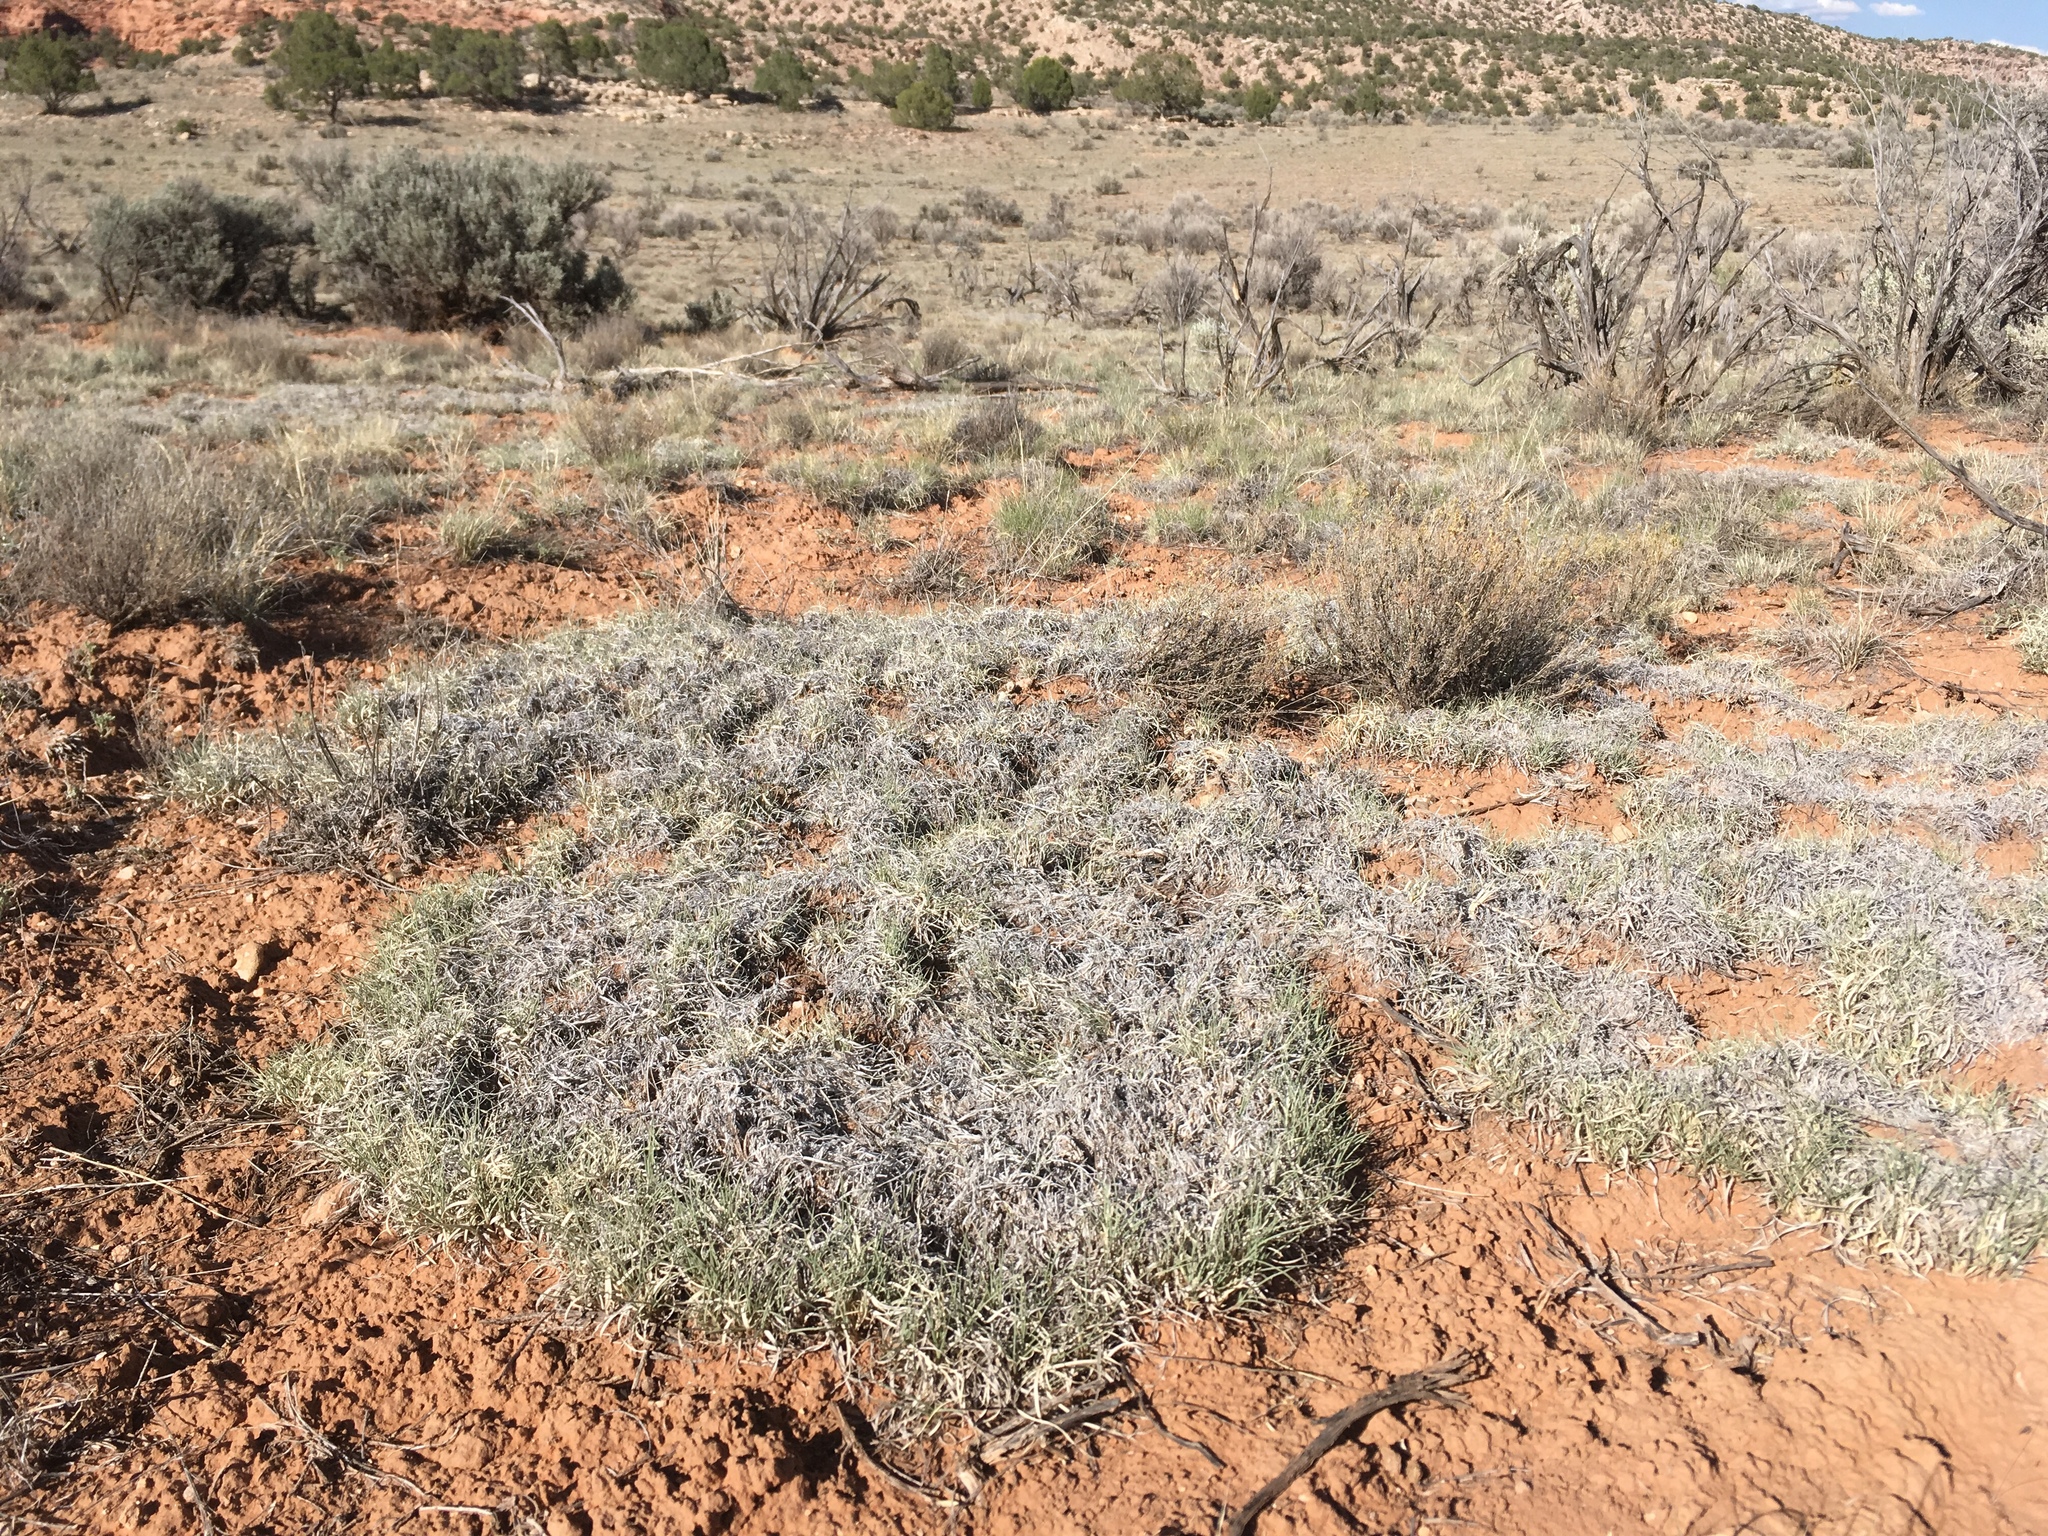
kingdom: Plantae
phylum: Tracheophyta
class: Liliopsida
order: Poales
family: Poaceae
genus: Bouteloua
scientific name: Bouteloua gracilis
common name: Blue grama
